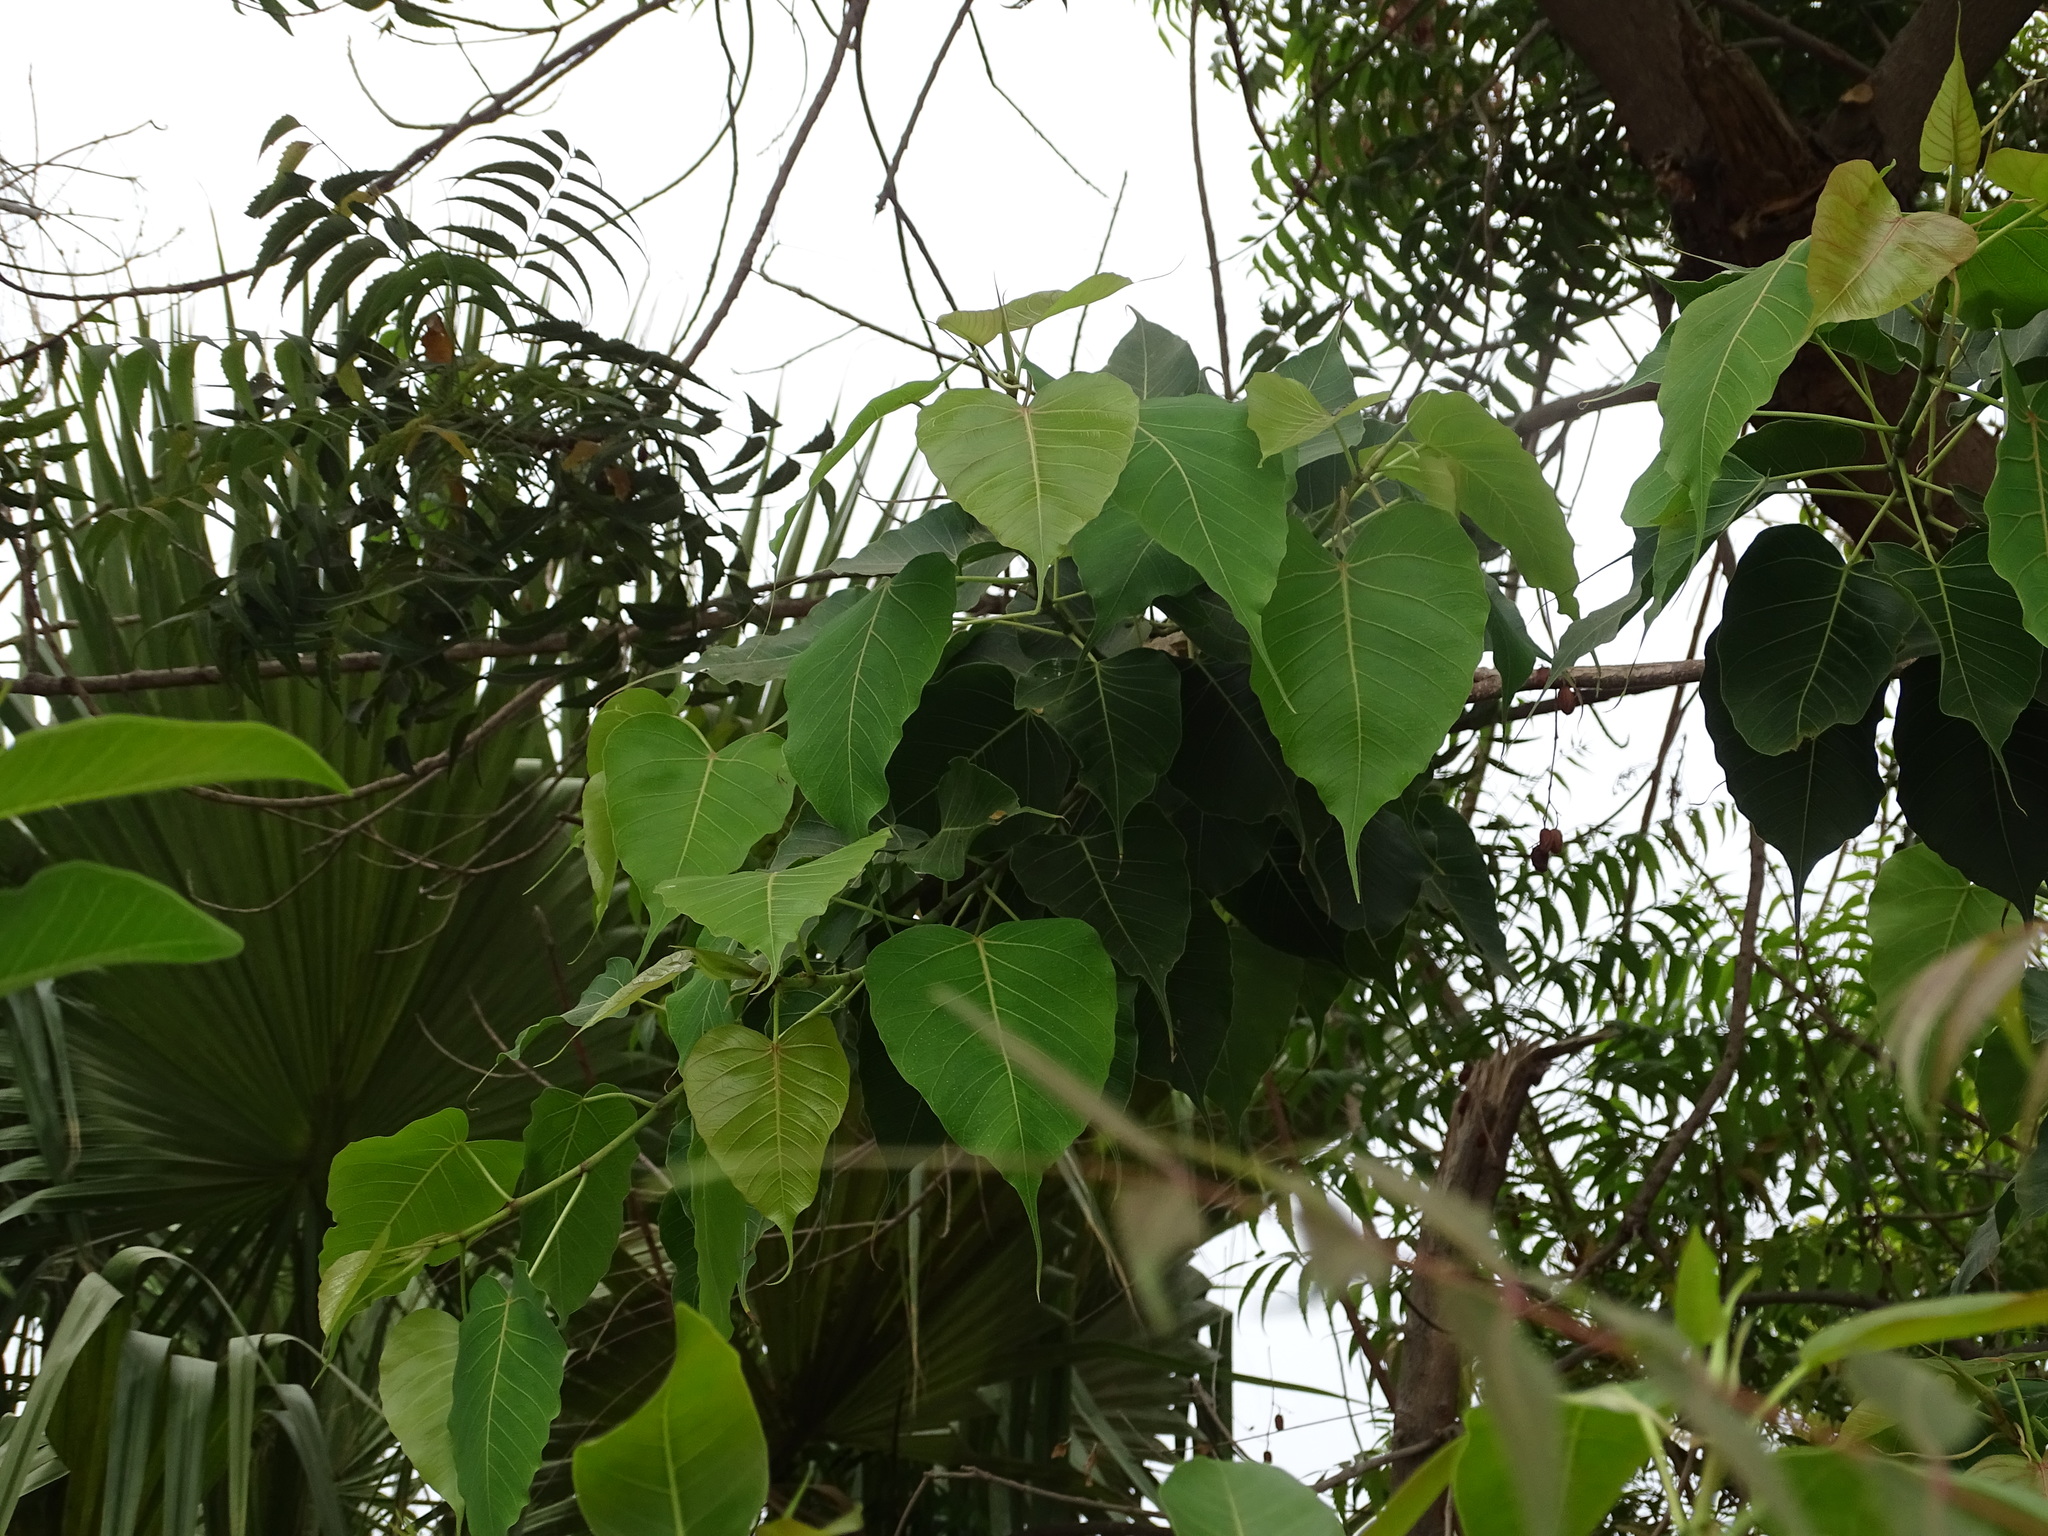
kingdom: Plantae
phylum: Tracheophyta
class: Magnoliopsida
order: Rosales
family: Moraceae
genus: Ficus
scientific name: Ficus religiosa
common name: Bodhi tree
